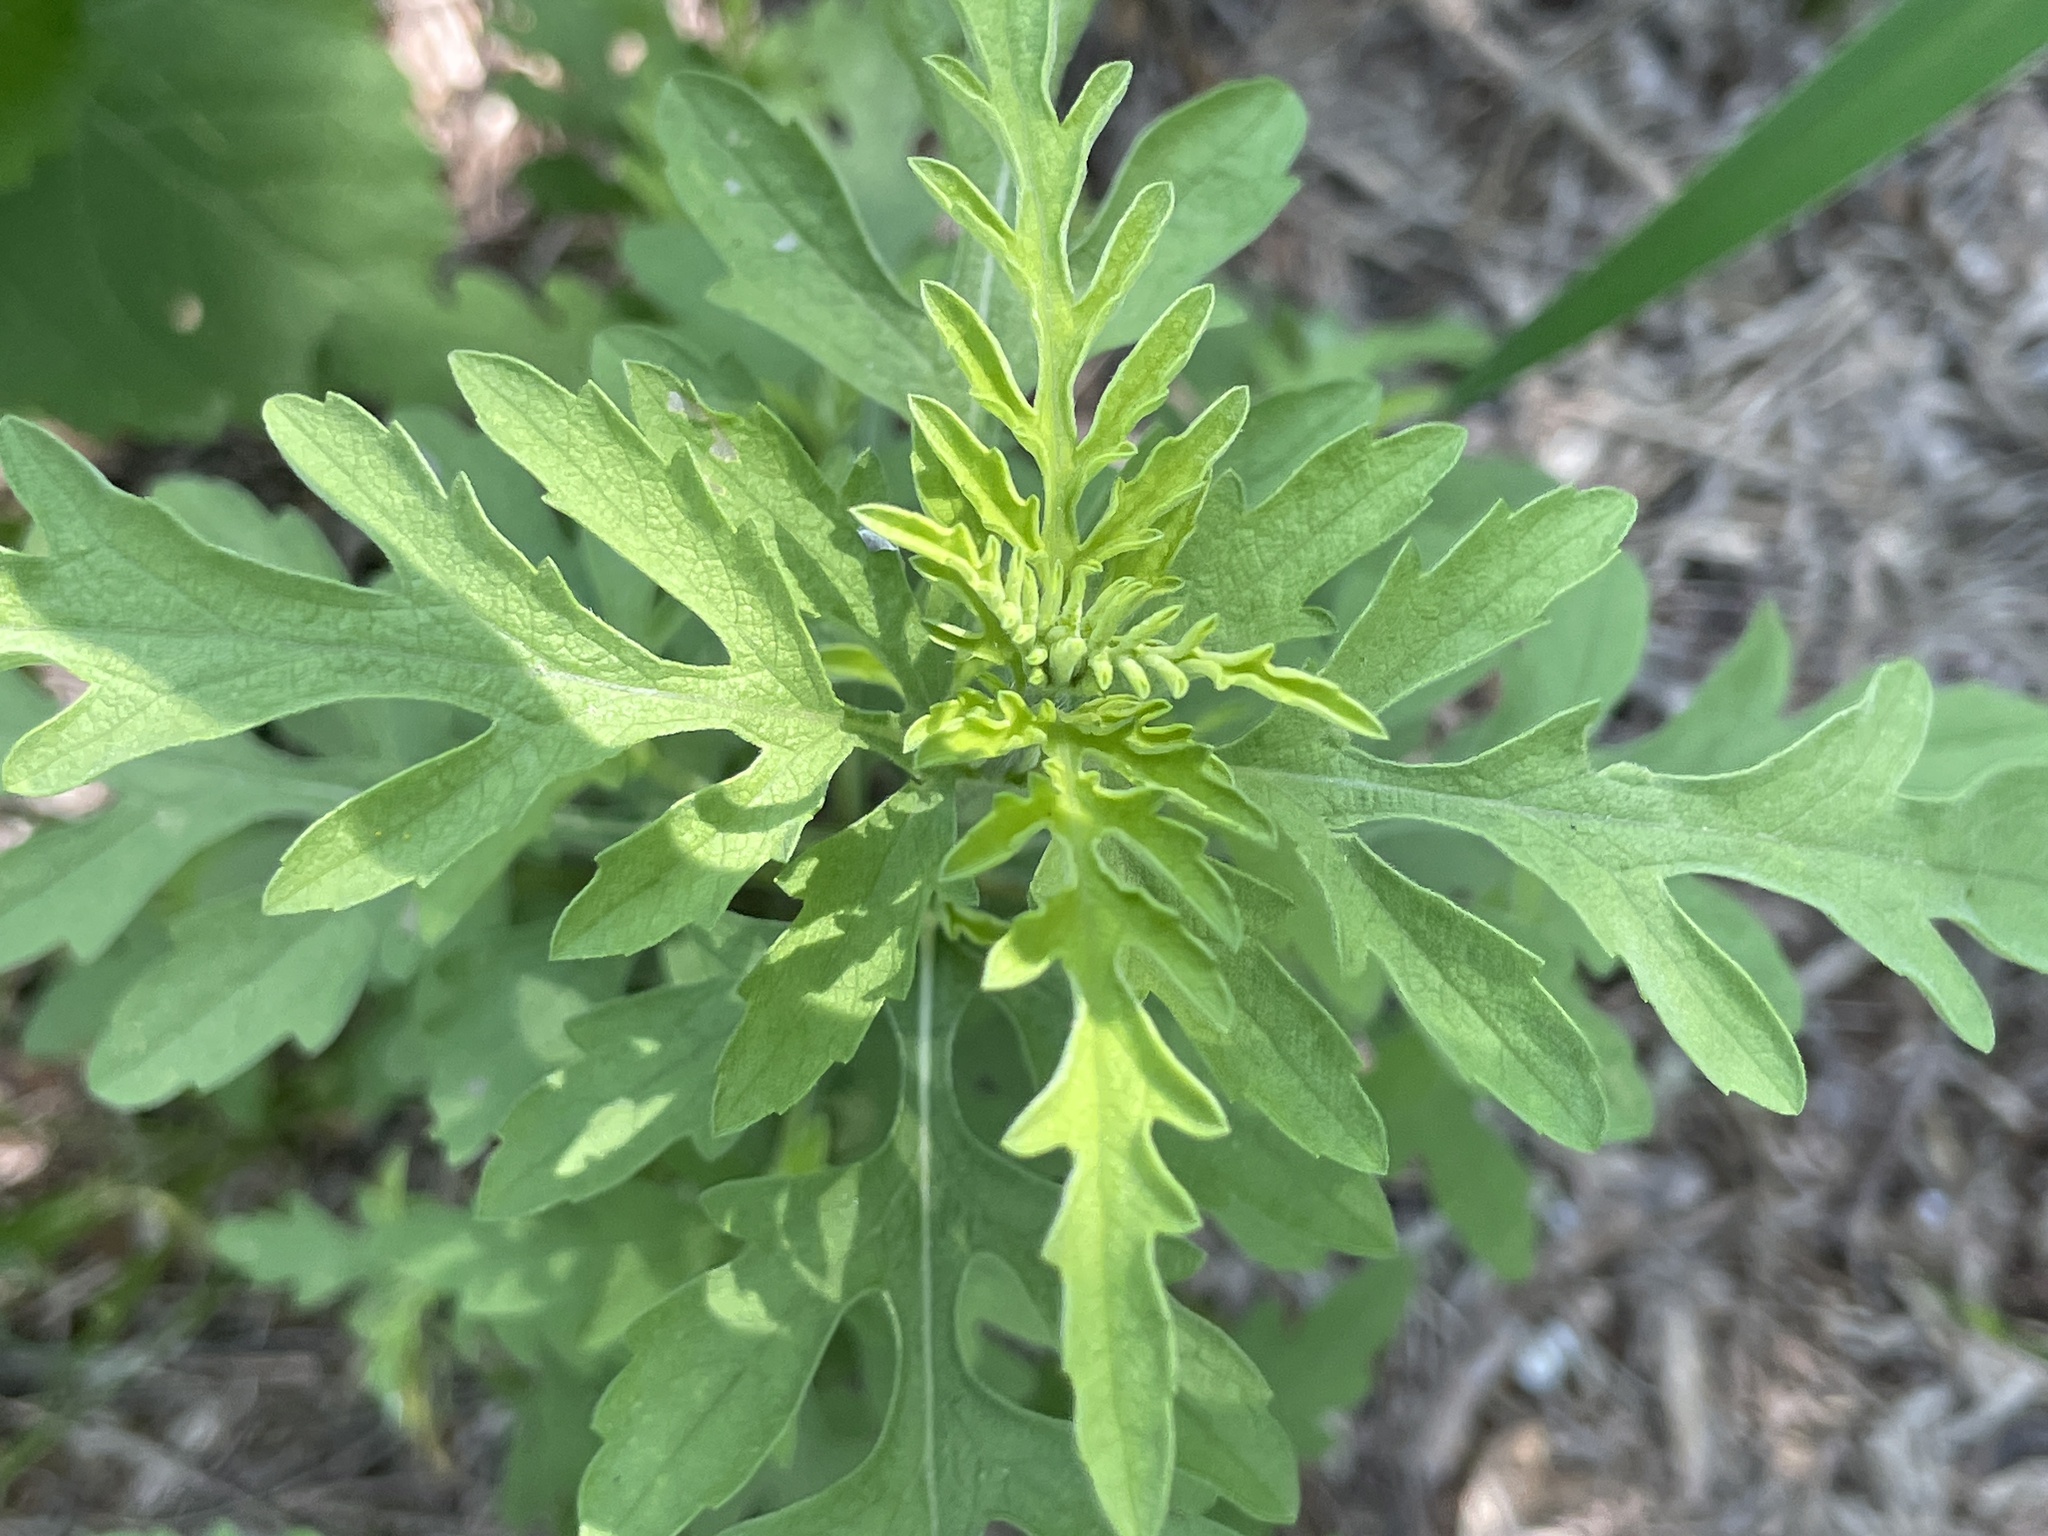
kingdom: Plantae
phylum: Tracheophyta
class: Magnoliopsida
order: Asterales
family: Asteraceae
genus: Ambrosia
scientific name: Ambrosia psilostachya
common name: Perennial ragweed
